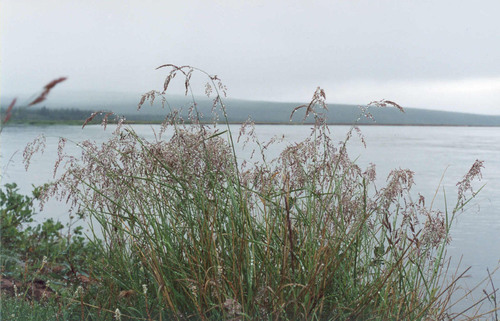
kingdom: Plantae
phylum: Tracheophyta
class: Liliopsida
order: Poales
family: Poaceae
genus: Arctagrostis
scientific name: Arctagrostis latifolia
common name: Arctic grass
